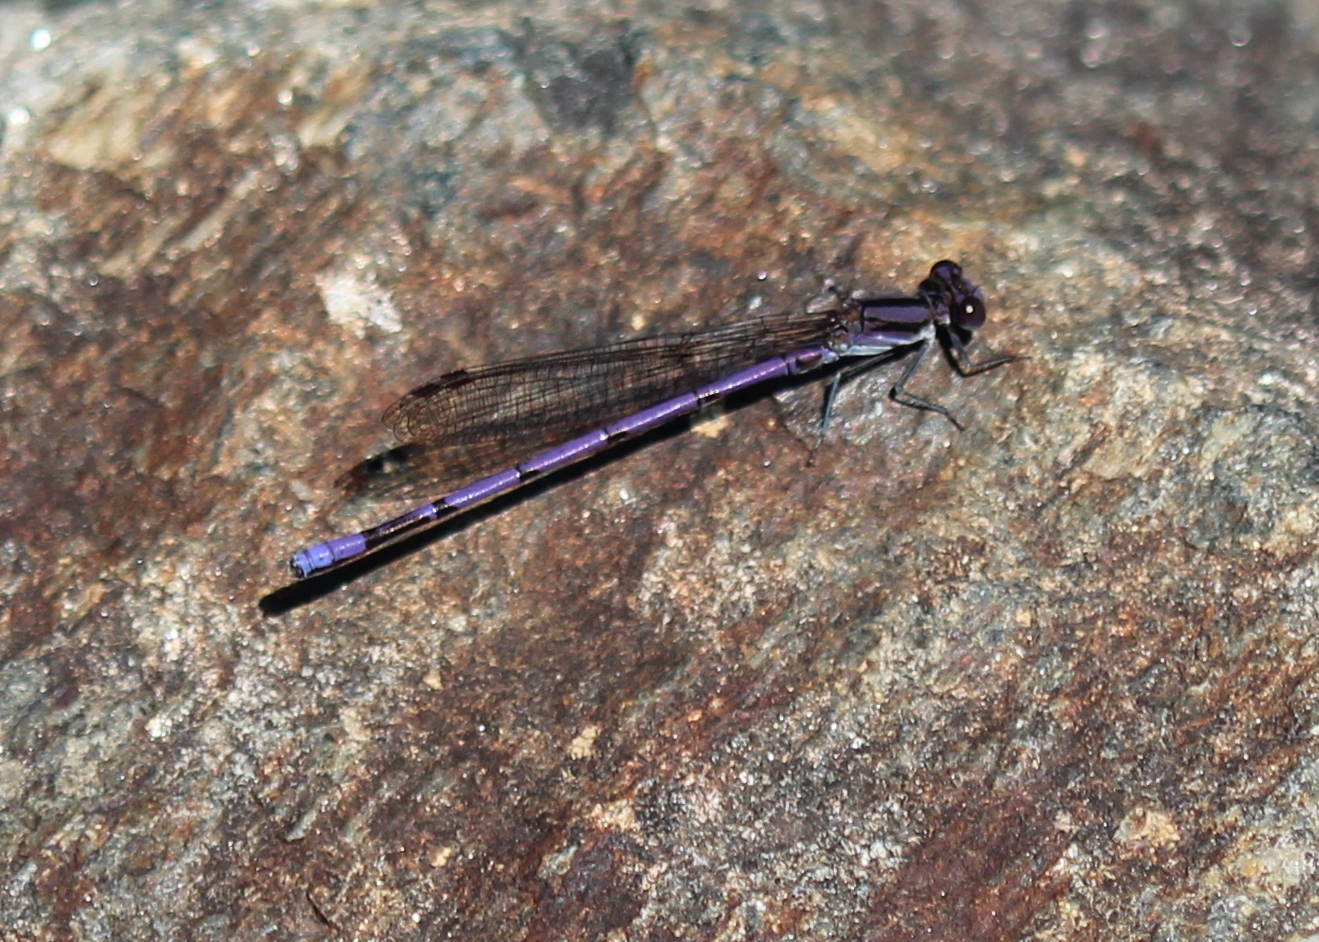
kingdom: Animalia
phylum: Arthropoda
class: Insecta
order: Odonata
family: Coenagrionidae
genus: Argia
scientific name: Argia fumipennis
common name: Variable dancer
